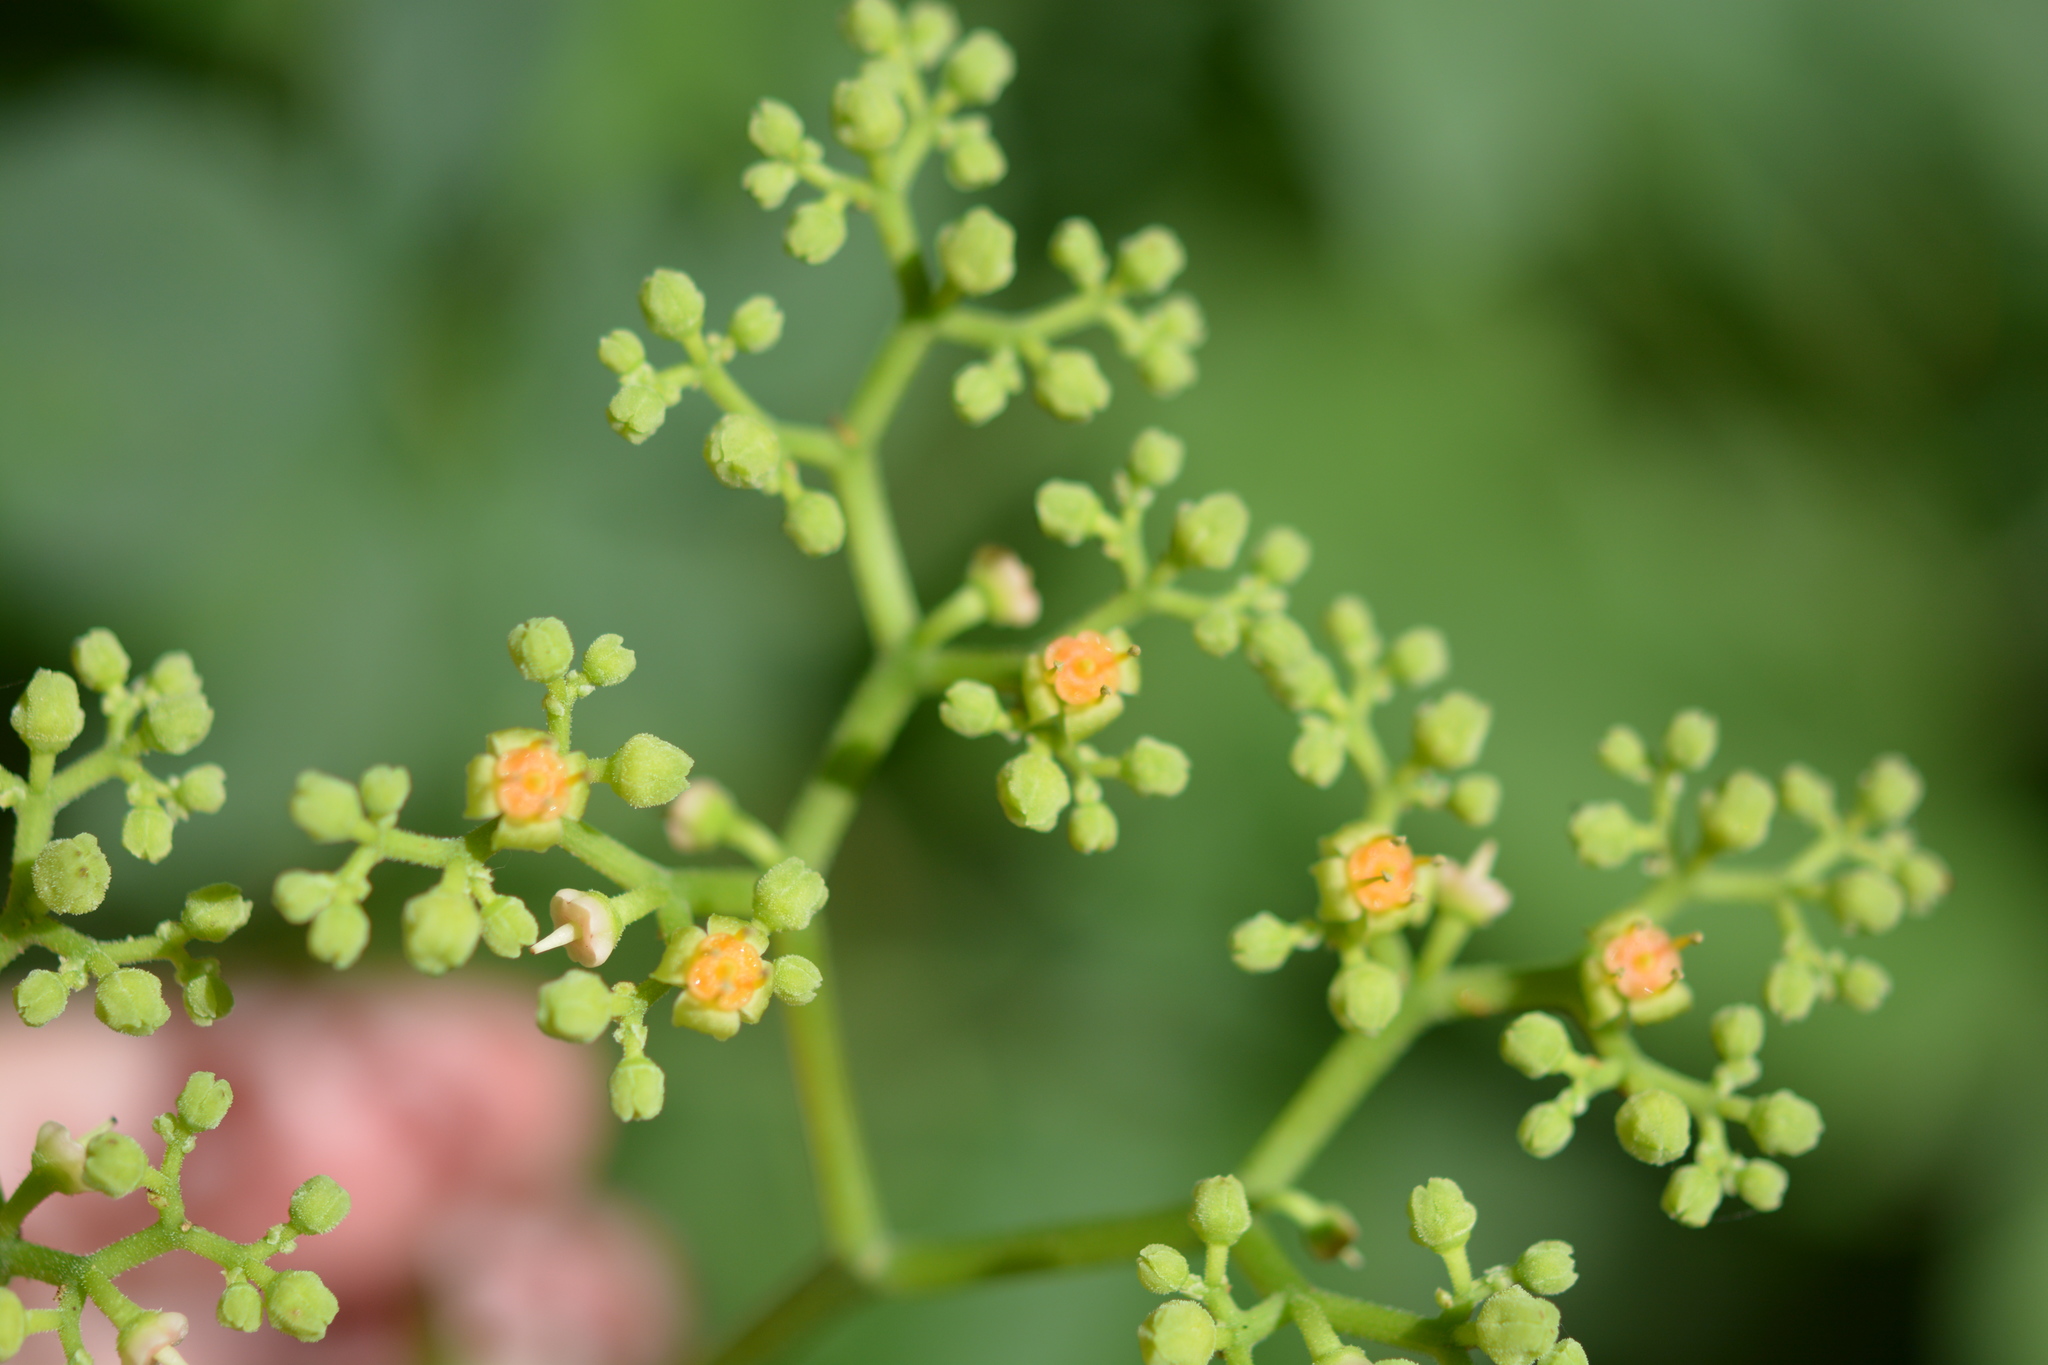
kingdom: Plantae
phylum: Tracheophyta
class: Magnoliopsida
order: Vitales
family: Vitaceae
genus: Causonis
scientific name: Causonis japonica
